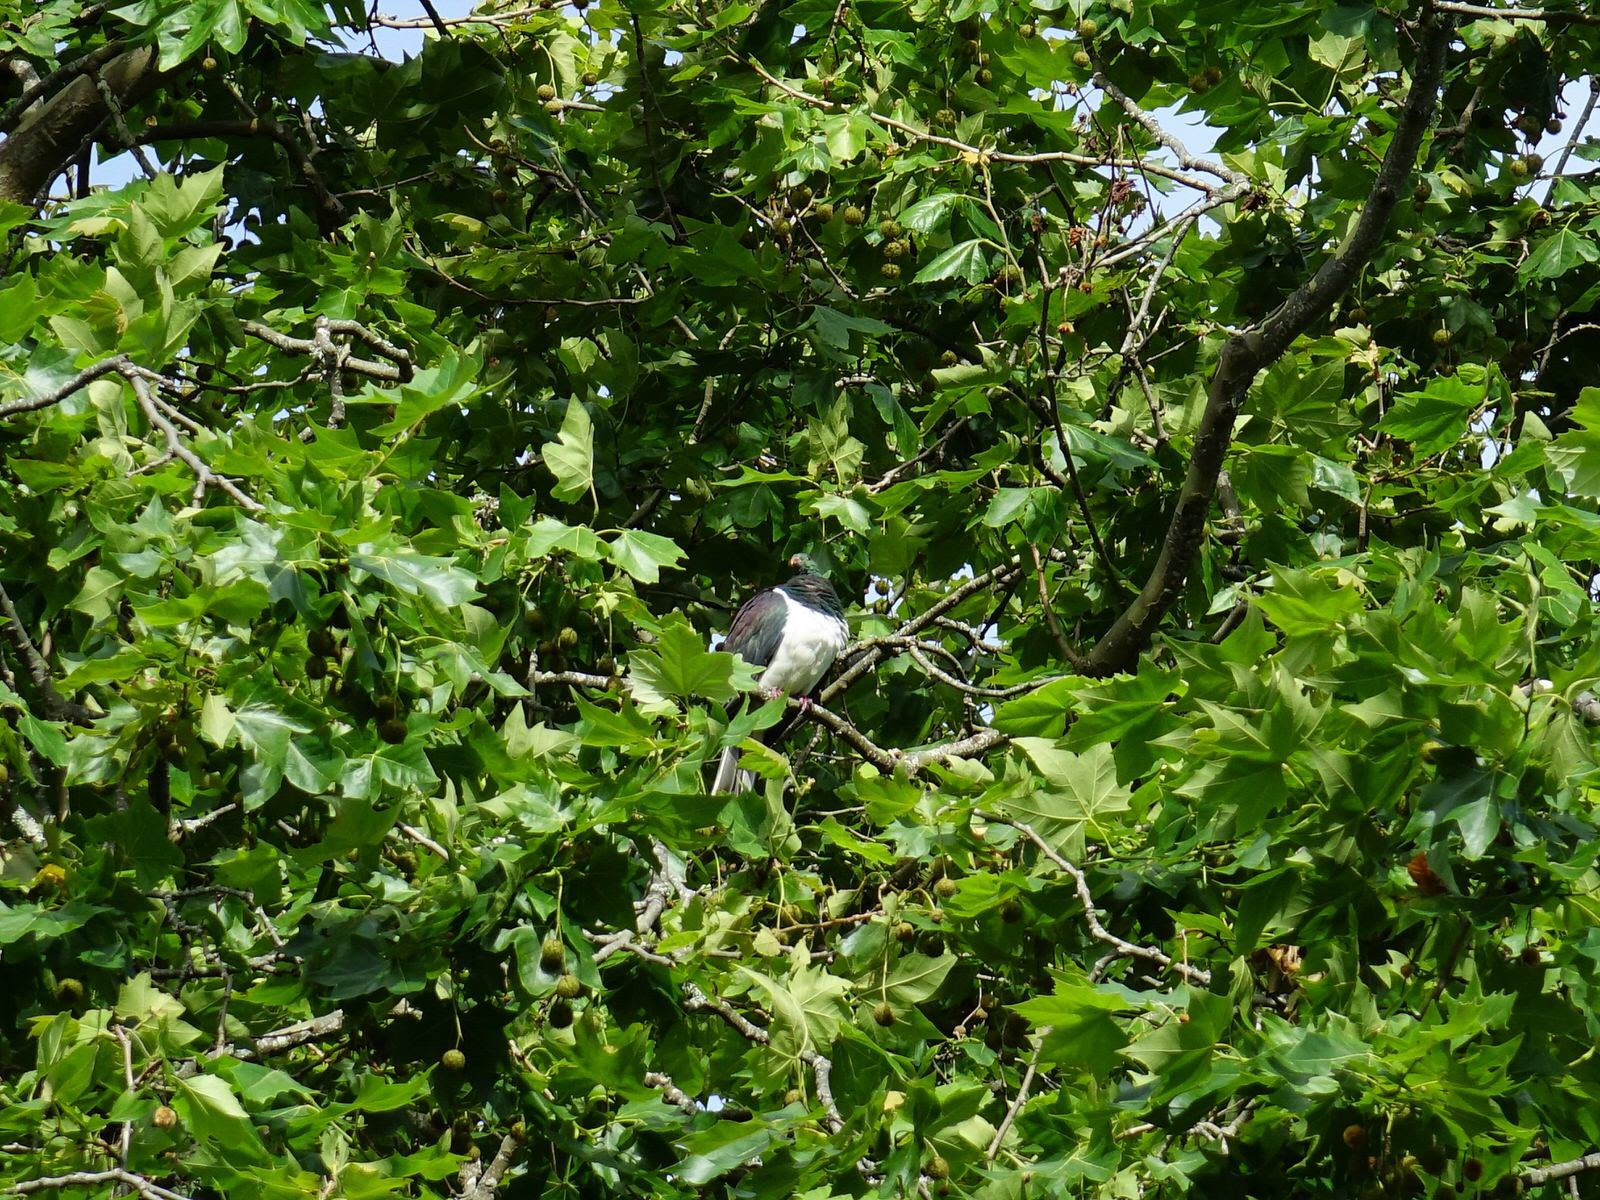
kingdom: Animalia
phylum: Chordata
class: Aves
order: Columbiformes
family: Columbidae
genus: Hemiphaga
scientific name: Hemiphaga novaeseelandiae
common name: New zealand pigeon
